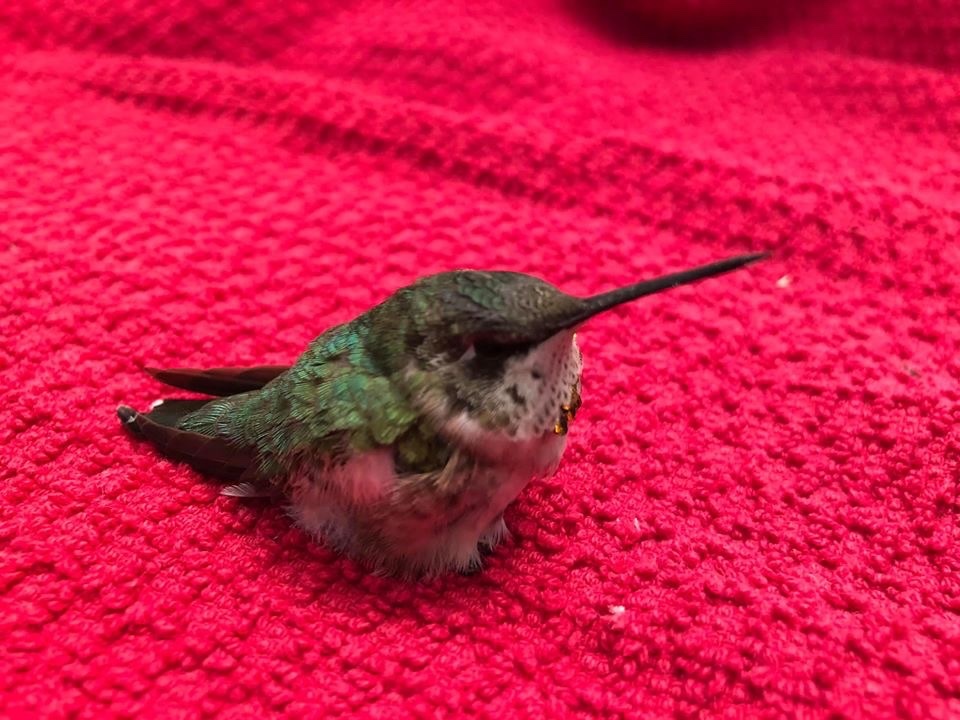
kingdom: Animalia
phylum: Chordata
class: Aves
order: Apodiformes
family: Trochilidae
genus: Archilochus
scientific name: Archilochus colubris
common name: Ruby-throated hummingbird
